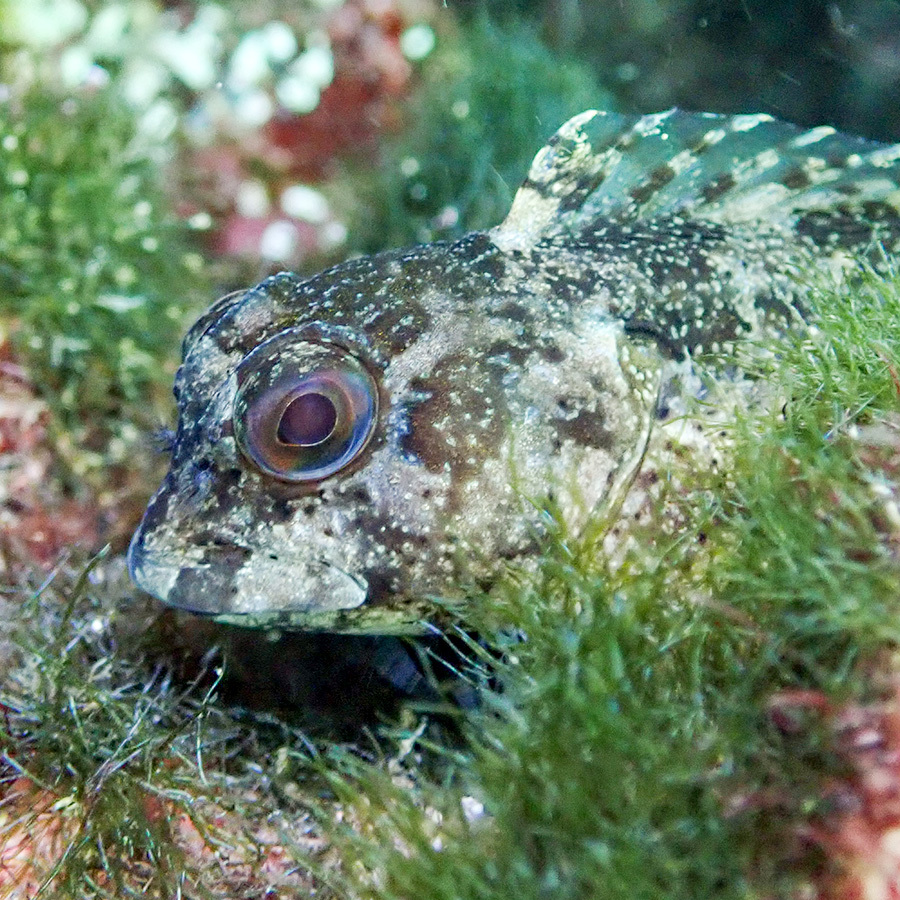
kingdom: Animalia
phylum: Chordata
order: Perciformes
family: Blenniidae
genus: Lipophrys
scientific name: Lipophrys trigloides
